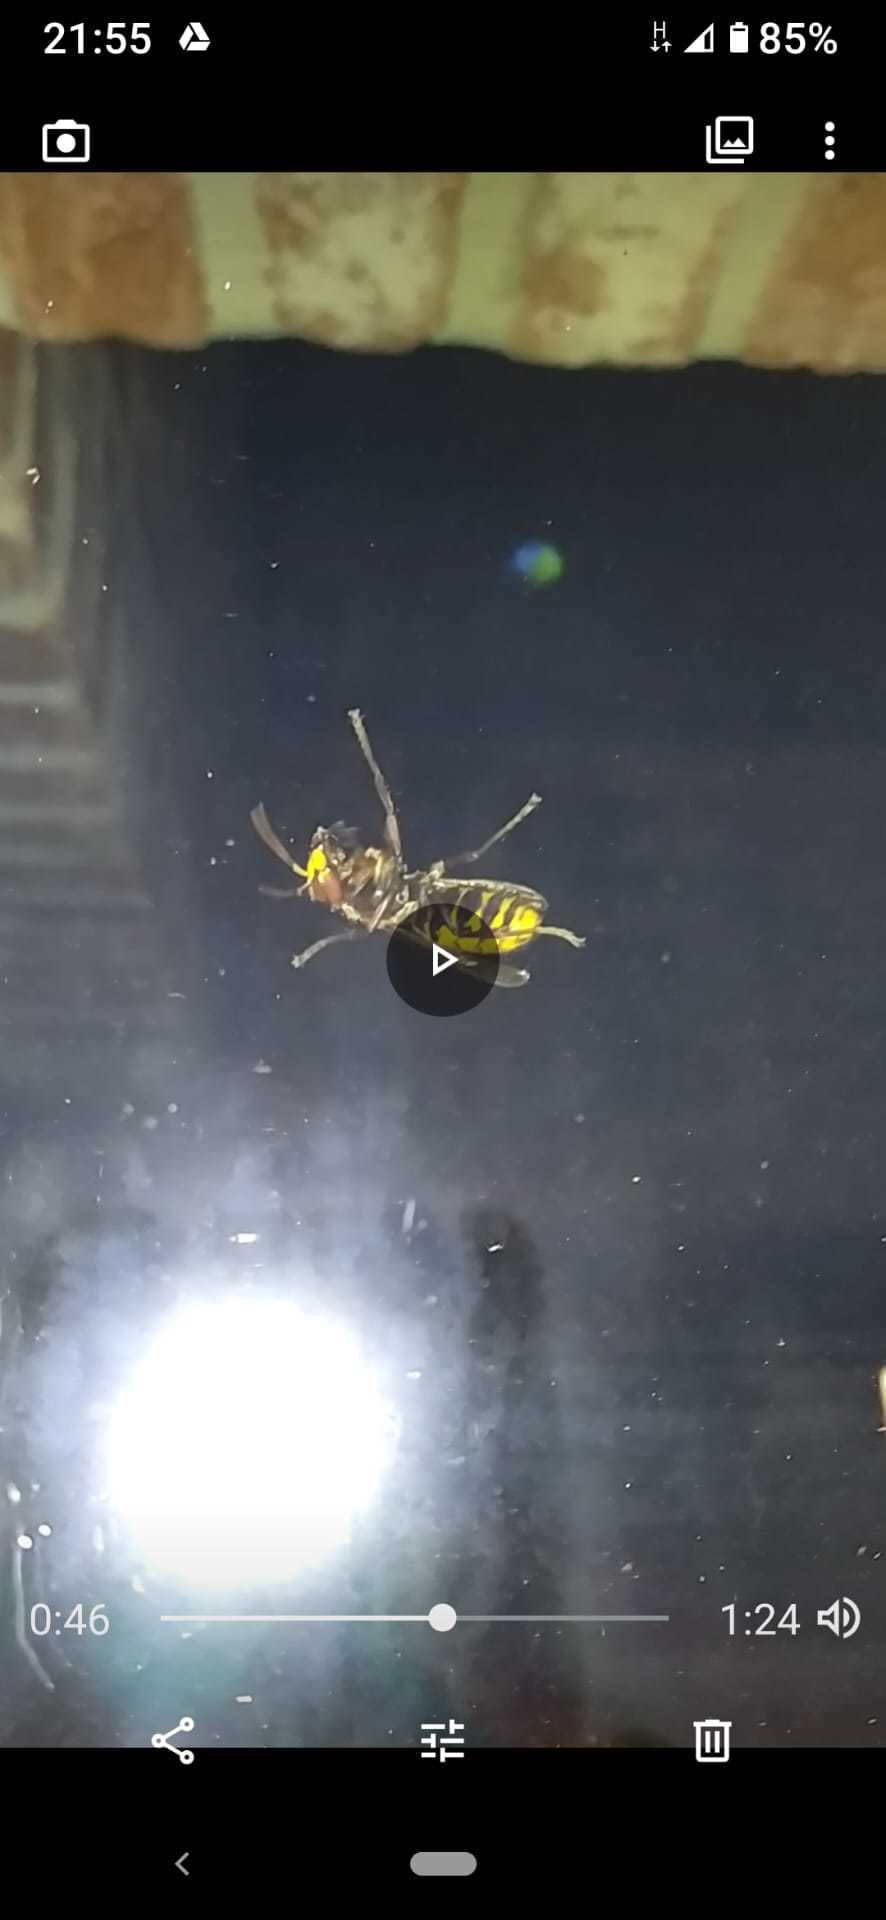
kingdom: Animalia
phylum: Arthropoda
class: Insecta
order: Hymenoptera
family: Vespidae
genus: Vespa
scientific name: Vespa crabro
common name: Hornet
